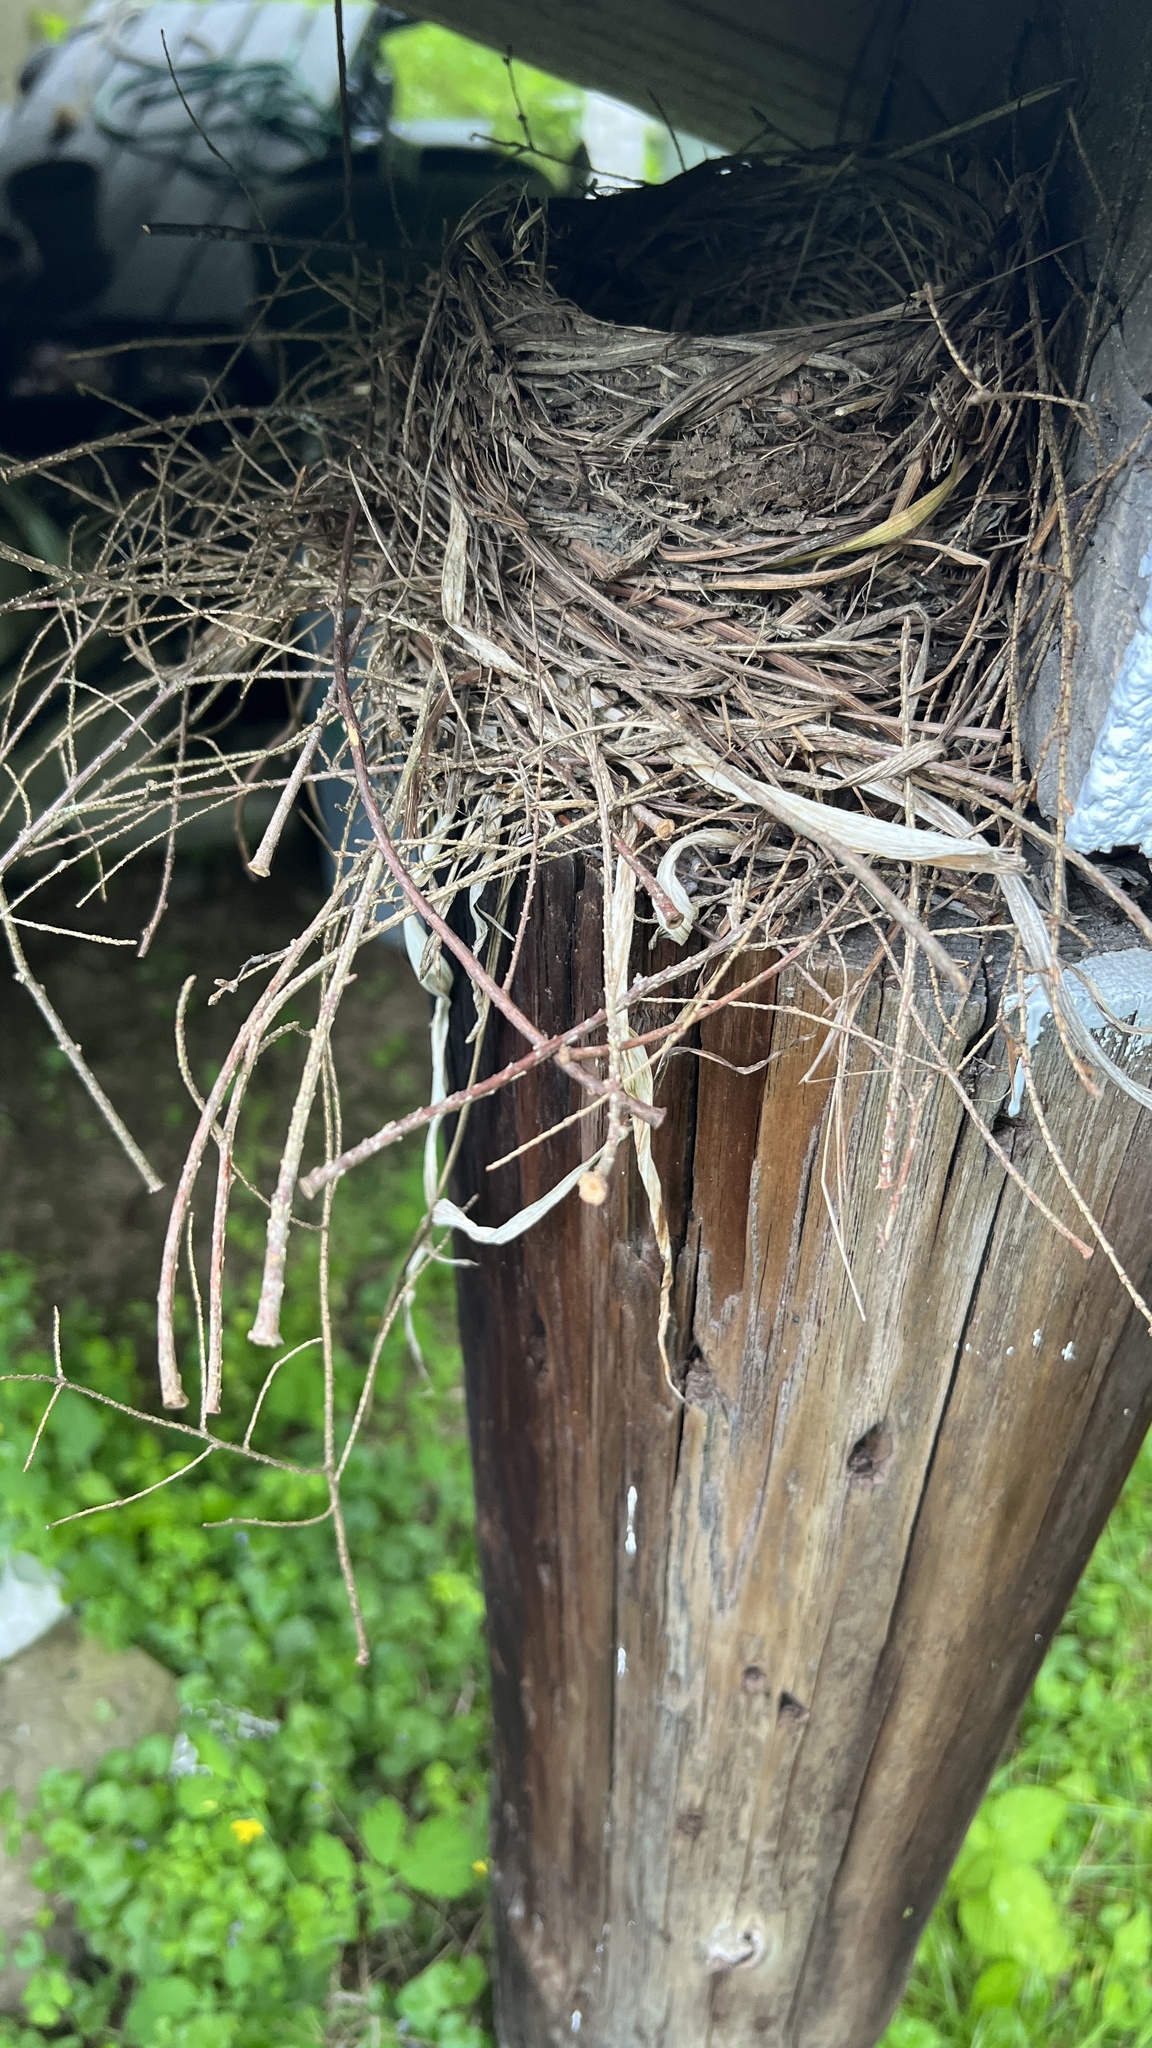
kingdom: Animalia
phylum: Chordata
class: Aves
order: Passeriformes
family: Turdidae
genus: Turdus
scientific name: Turdus migratorius
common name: American robin
